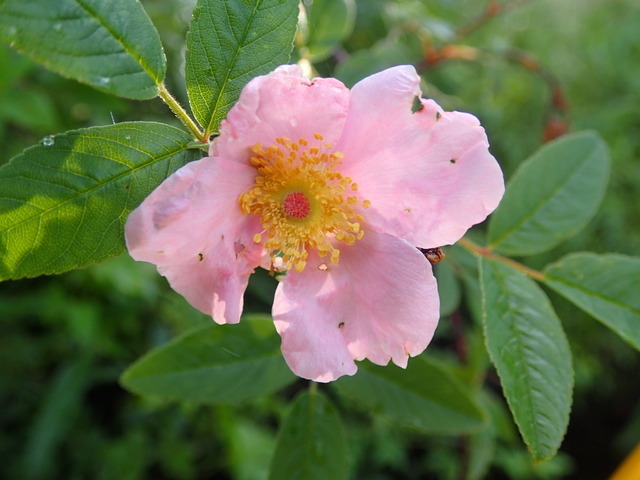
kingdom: Plantae
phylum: Tracheophyta
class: Magnoliopsida
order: Rosales
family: Rosaceae
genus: Rosa
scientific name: Rosa palustris
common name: Swamp rose
